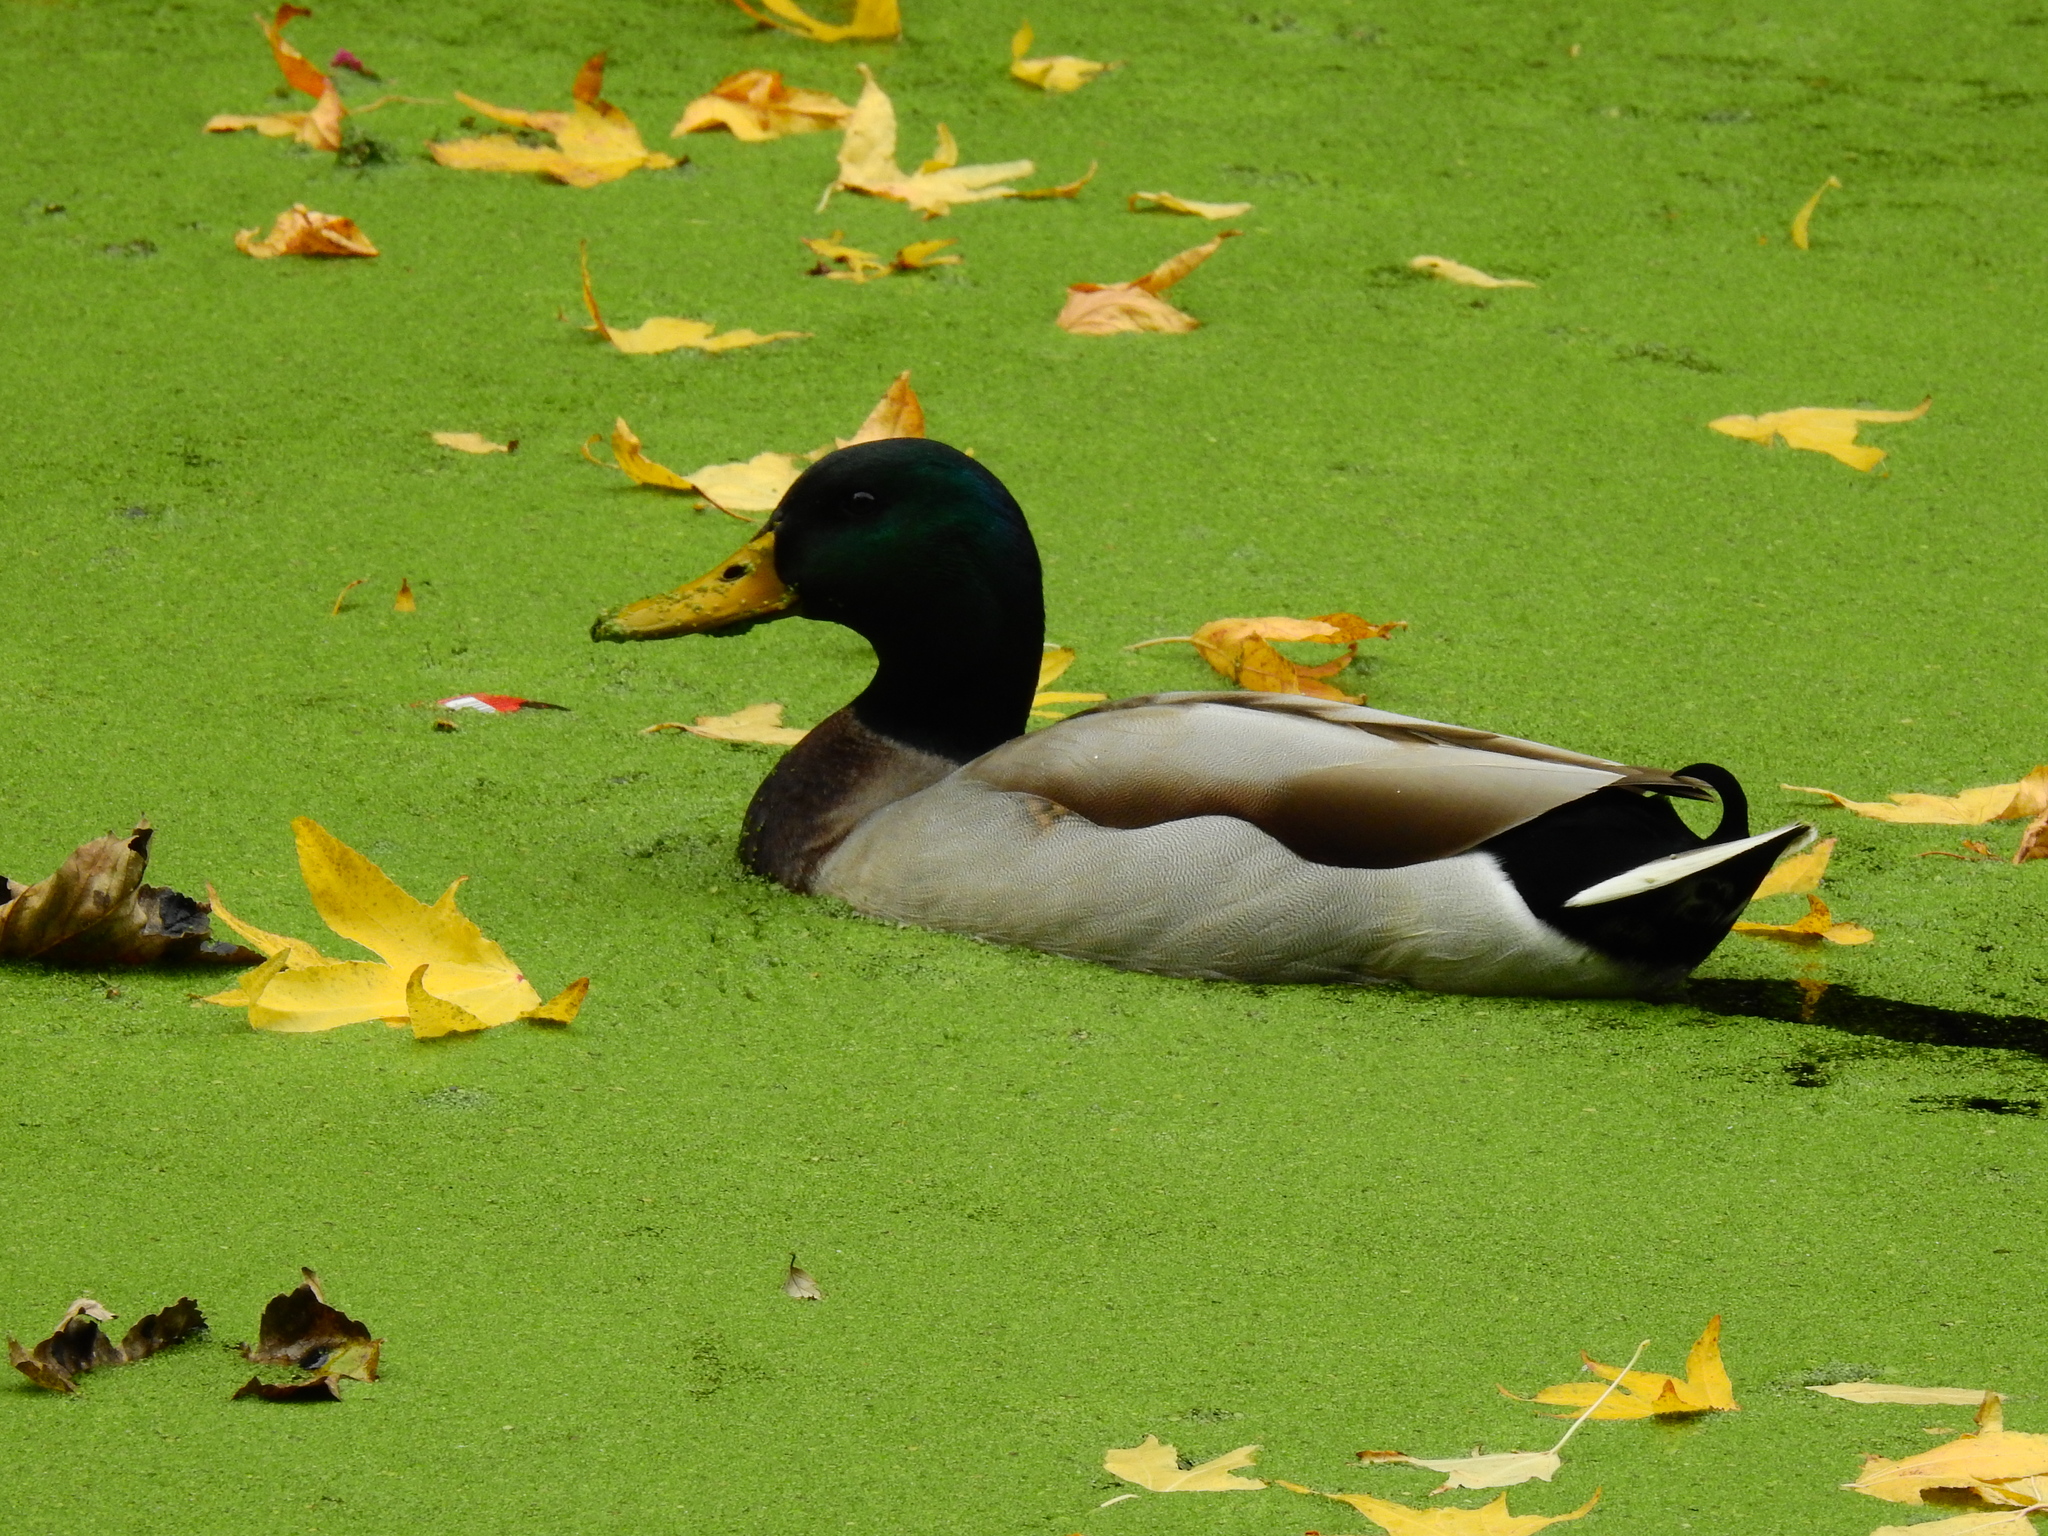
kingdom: Animalia
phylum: Chordata
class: Aves
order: Anseriformes
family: Anatidae
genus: Anas
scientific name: Anas platyrhynchos
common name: Mallard
